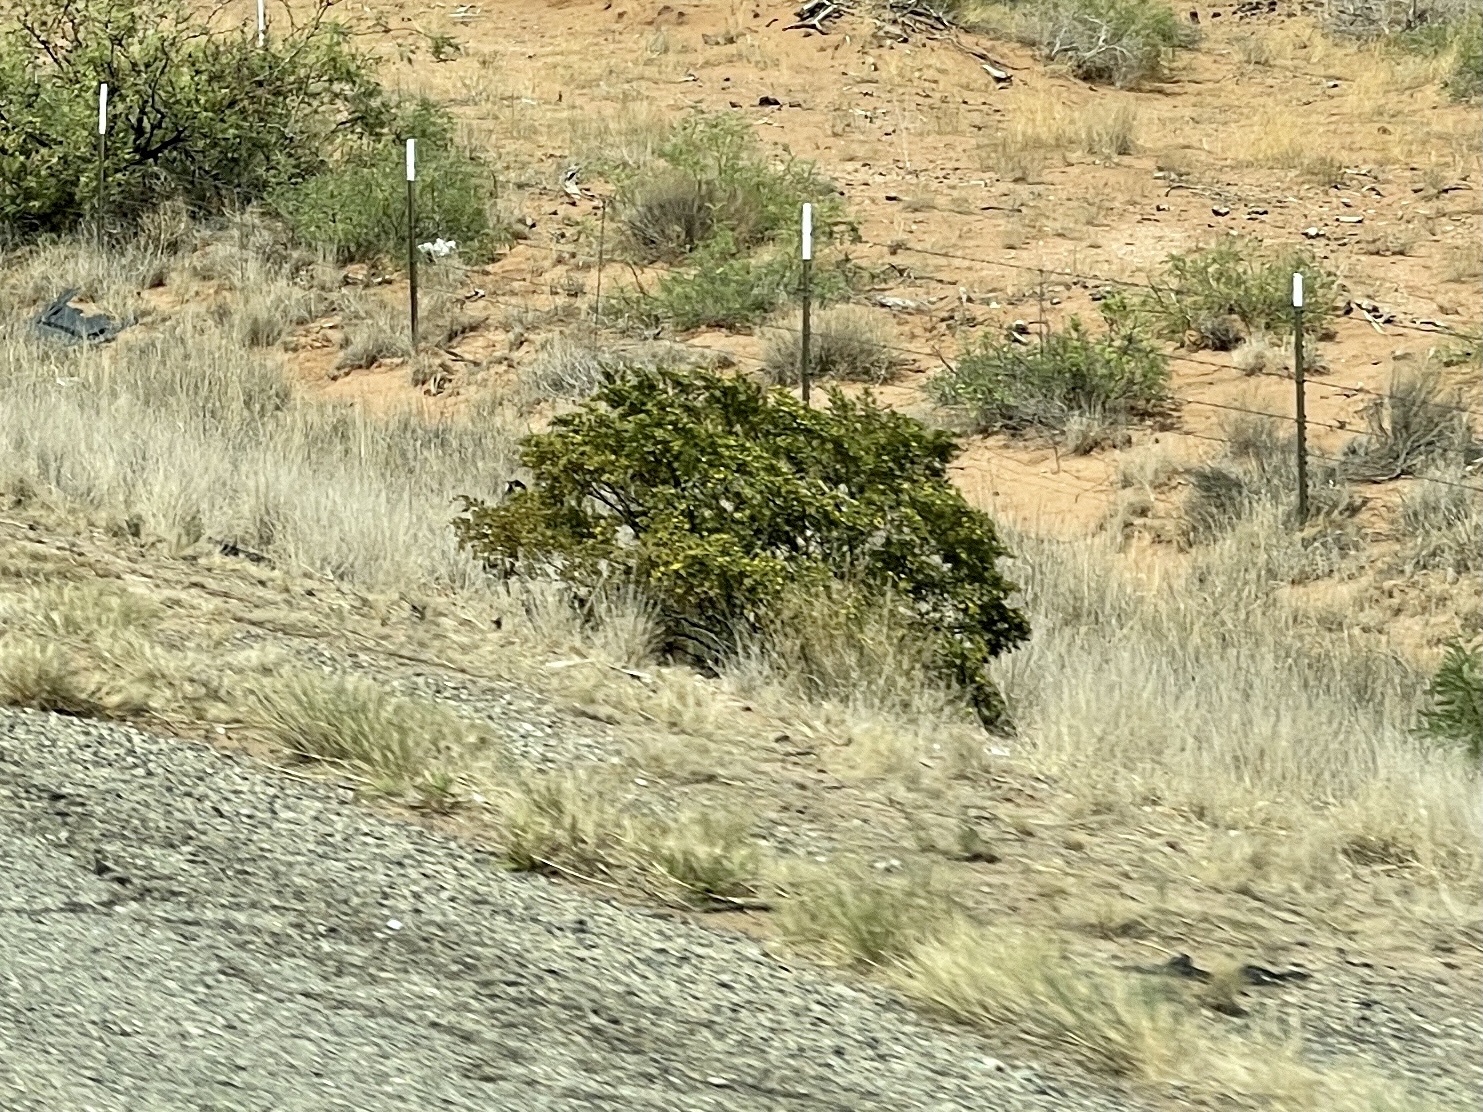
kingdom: Plantae
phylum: Tracheophyta
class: Magnoliopsida
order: Zygophyllales
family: Zygophyllaceae
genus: Larrea
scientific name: Larrea tridentata
